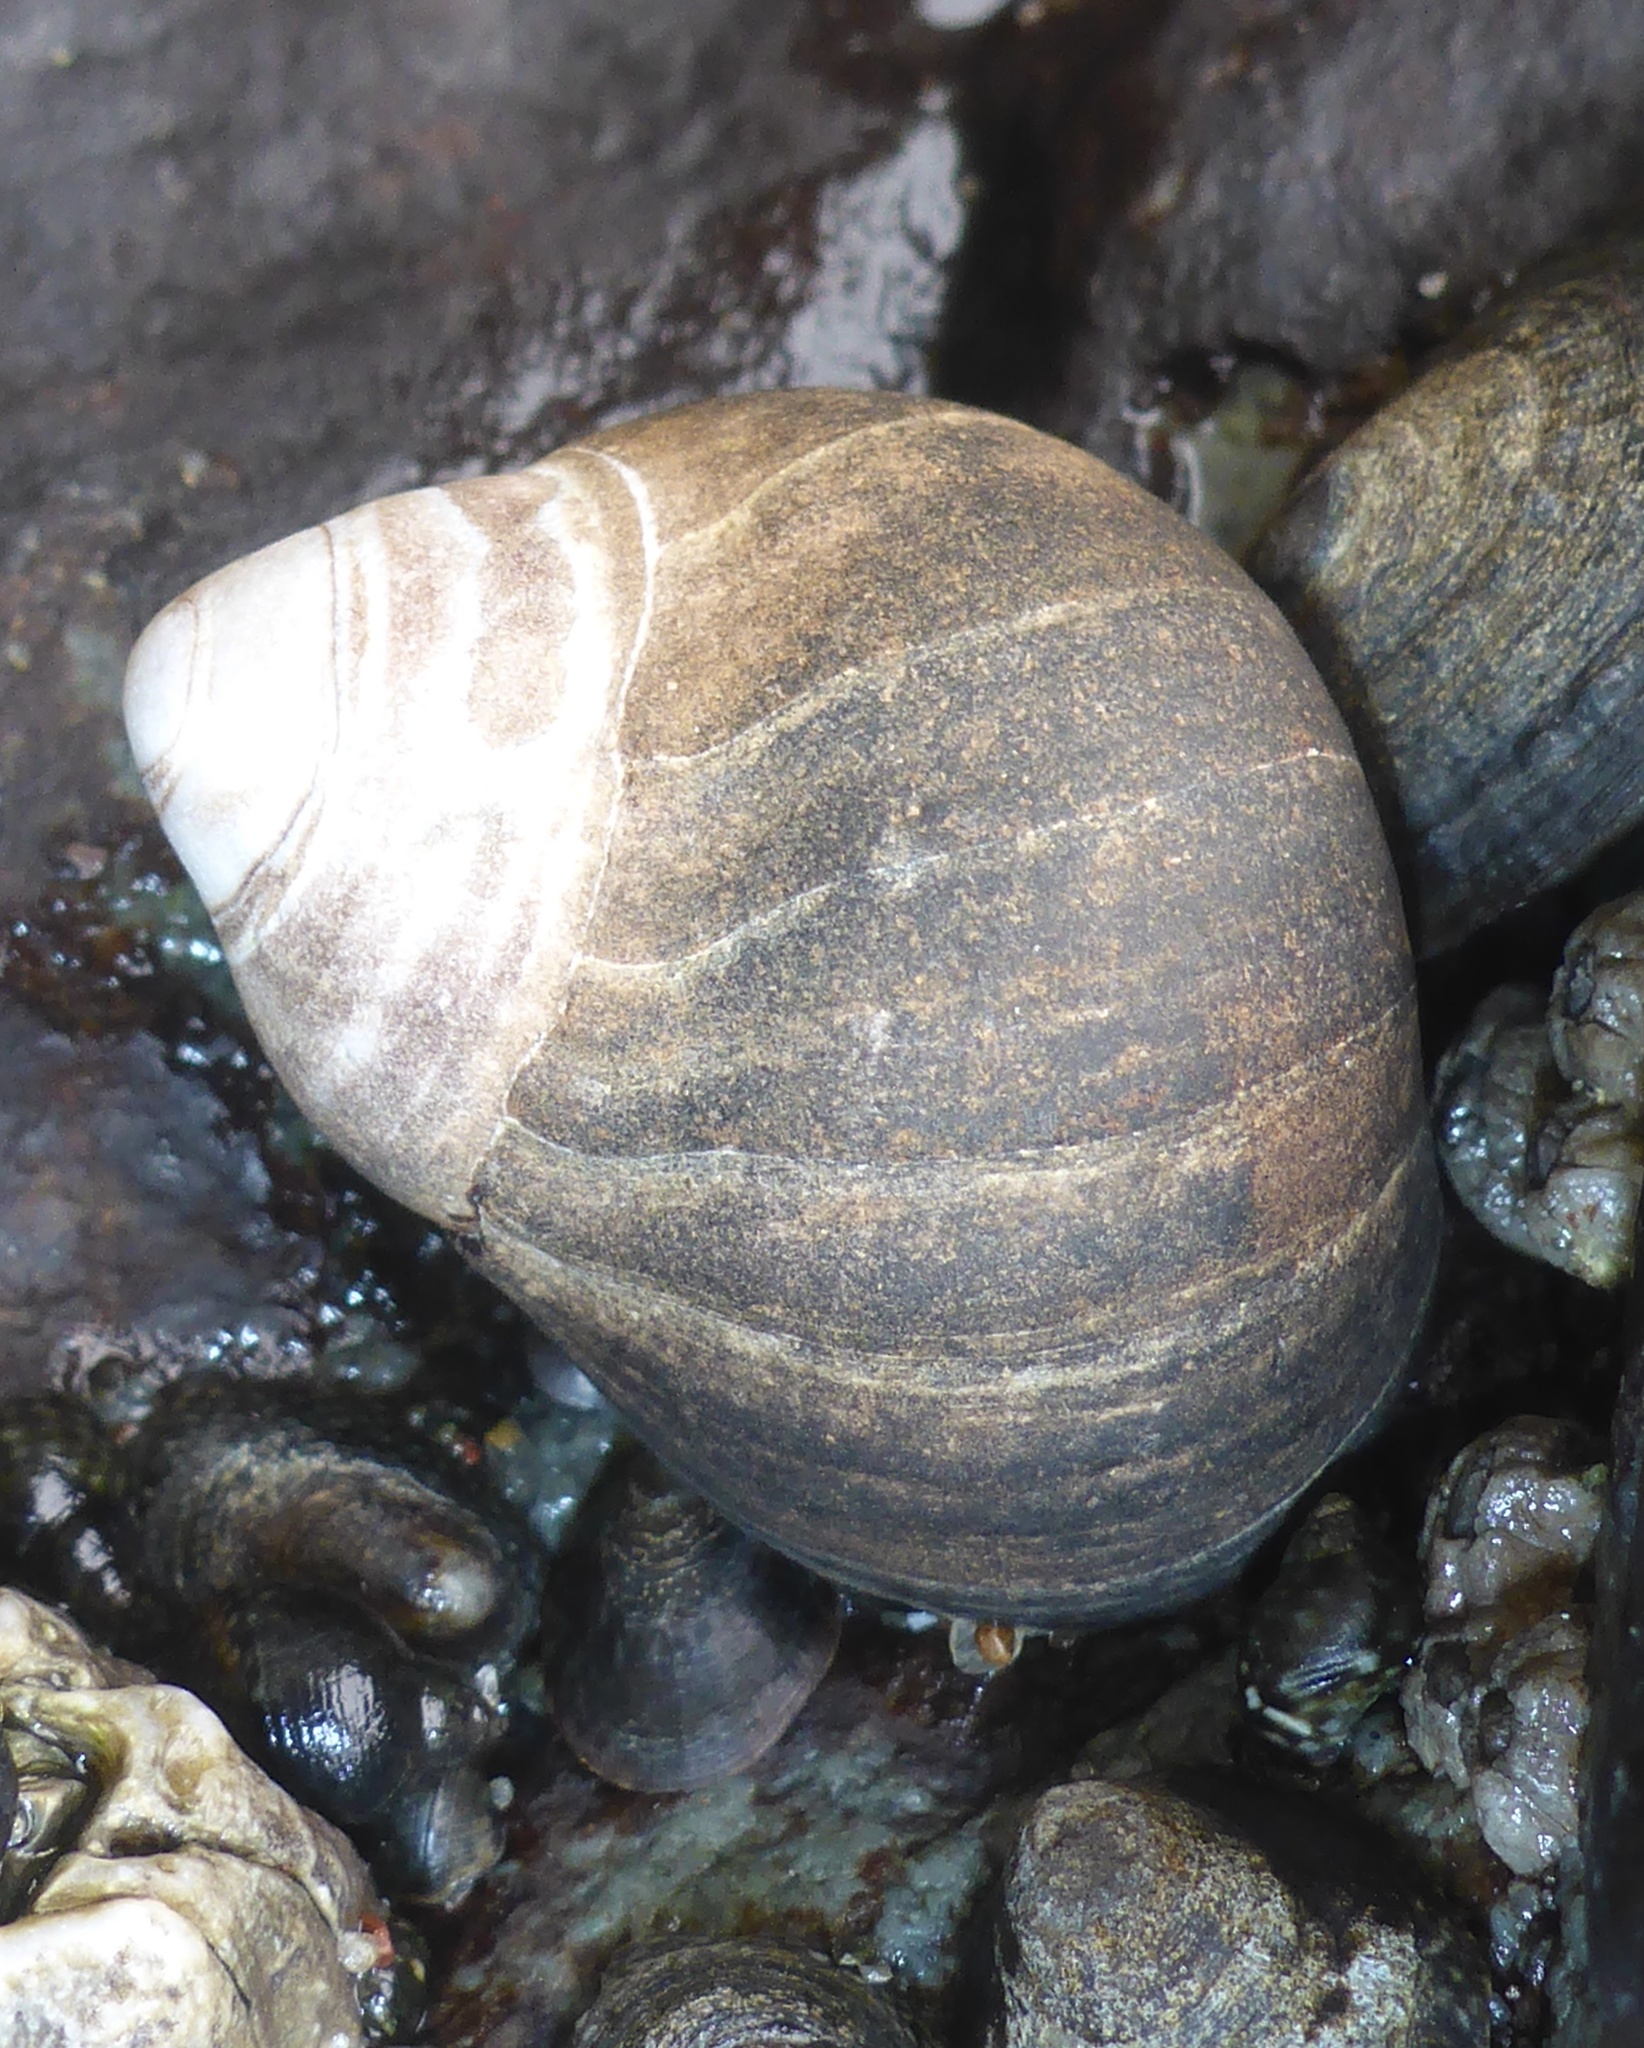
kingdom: Animalia
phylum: Mollusca
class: Gastropoda
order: Littorinimorpha
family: Littorinidae
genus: Littorina
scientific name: Littorina littorea
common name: Common periwinkle
